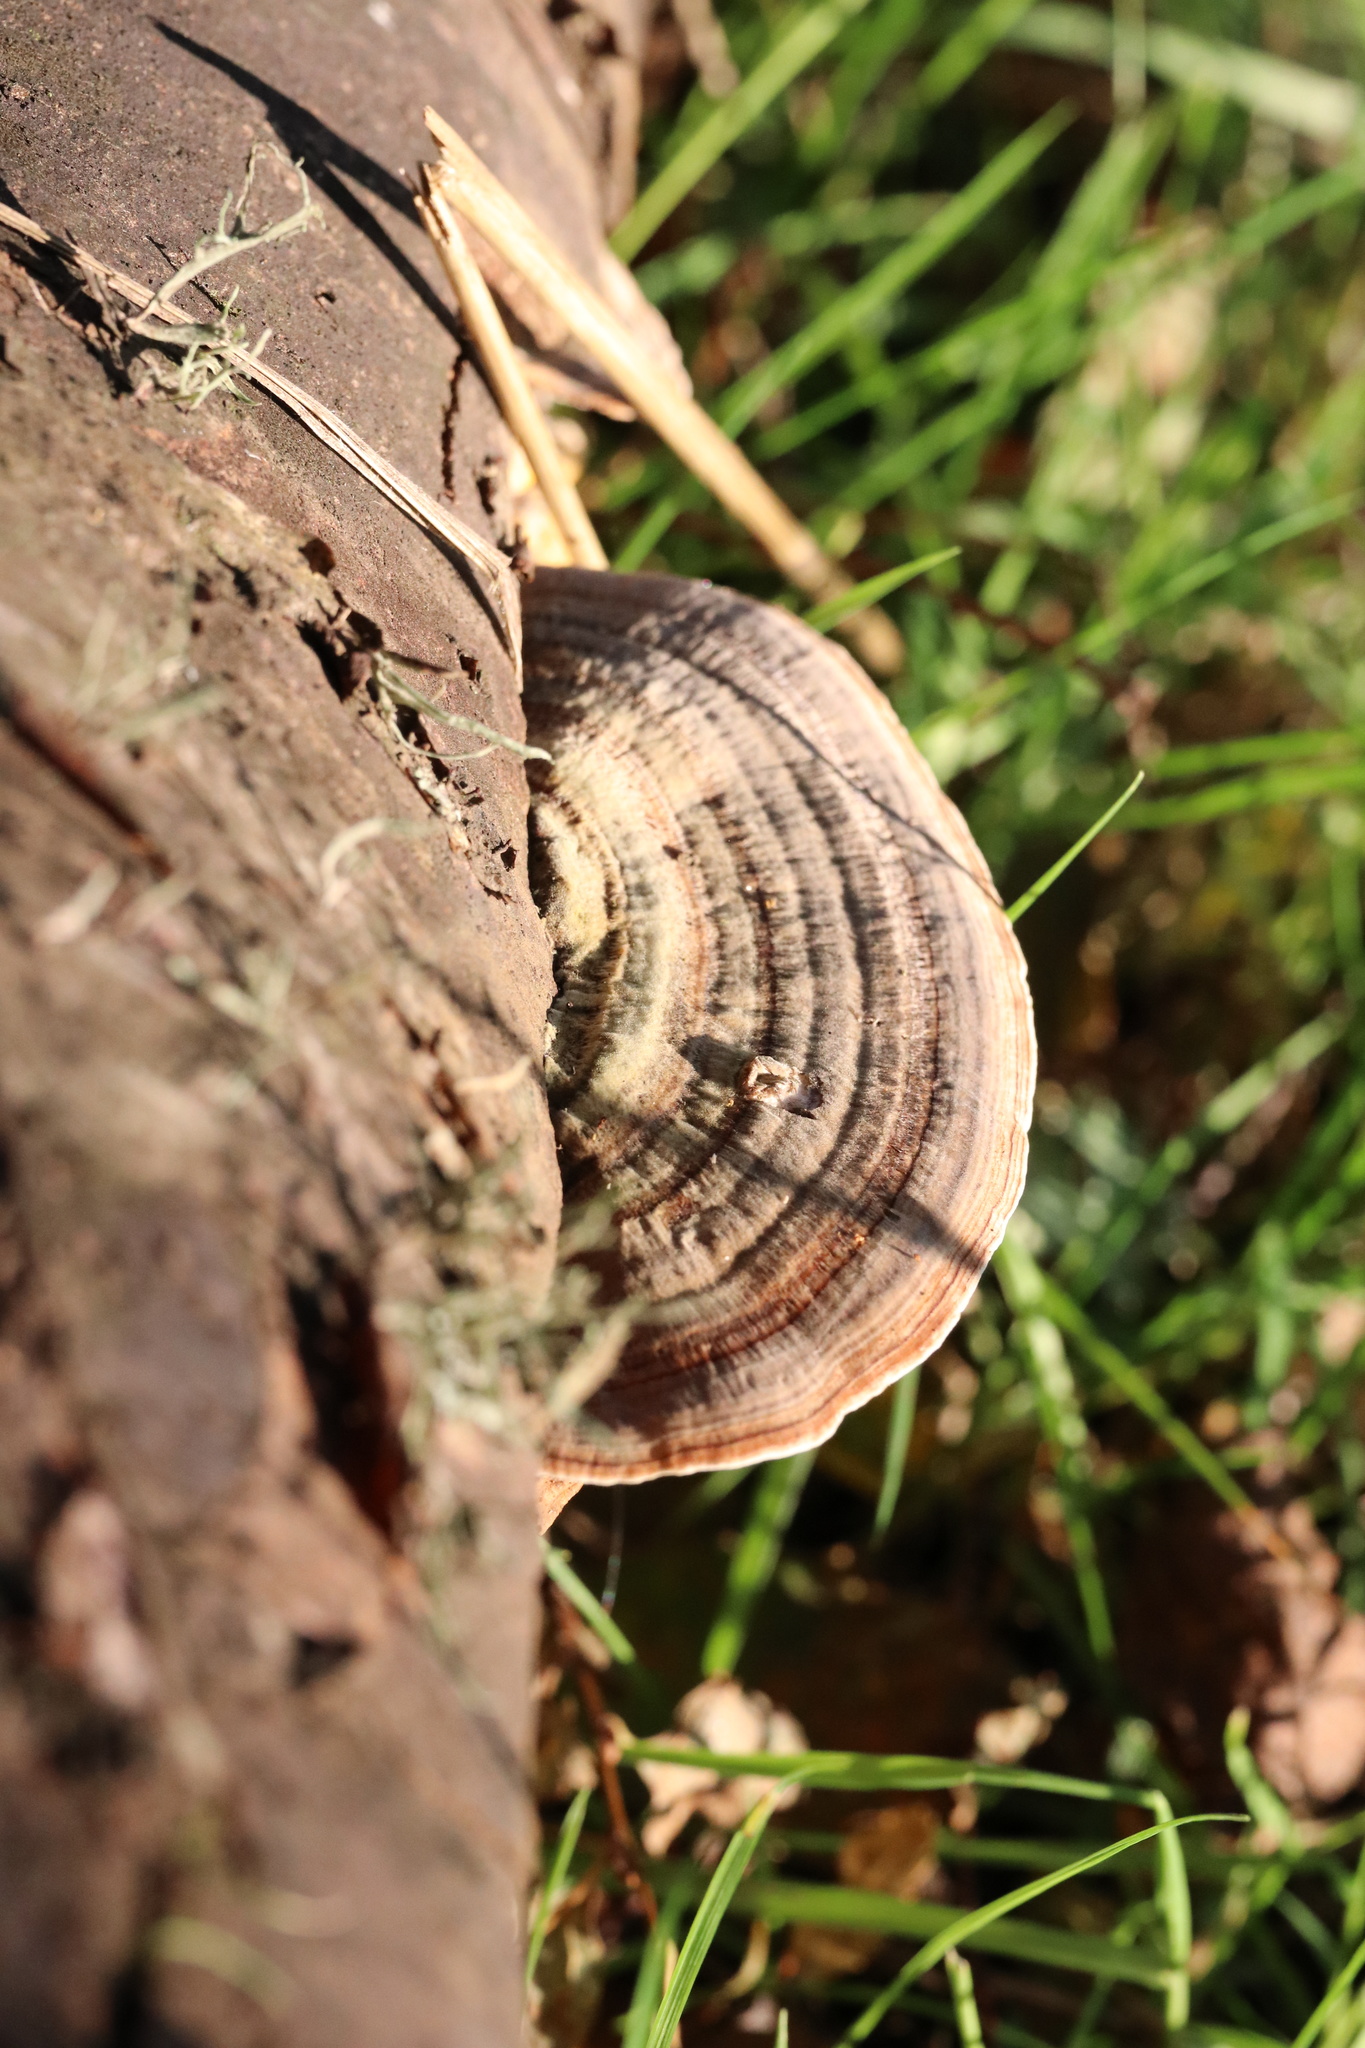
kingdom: Fungi
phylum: Basidiomycota
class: Agaricomycetes
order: Polyporales
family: Polyporaceae
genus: Trametes
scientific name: Trametes versicolor
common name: Turkeytail
